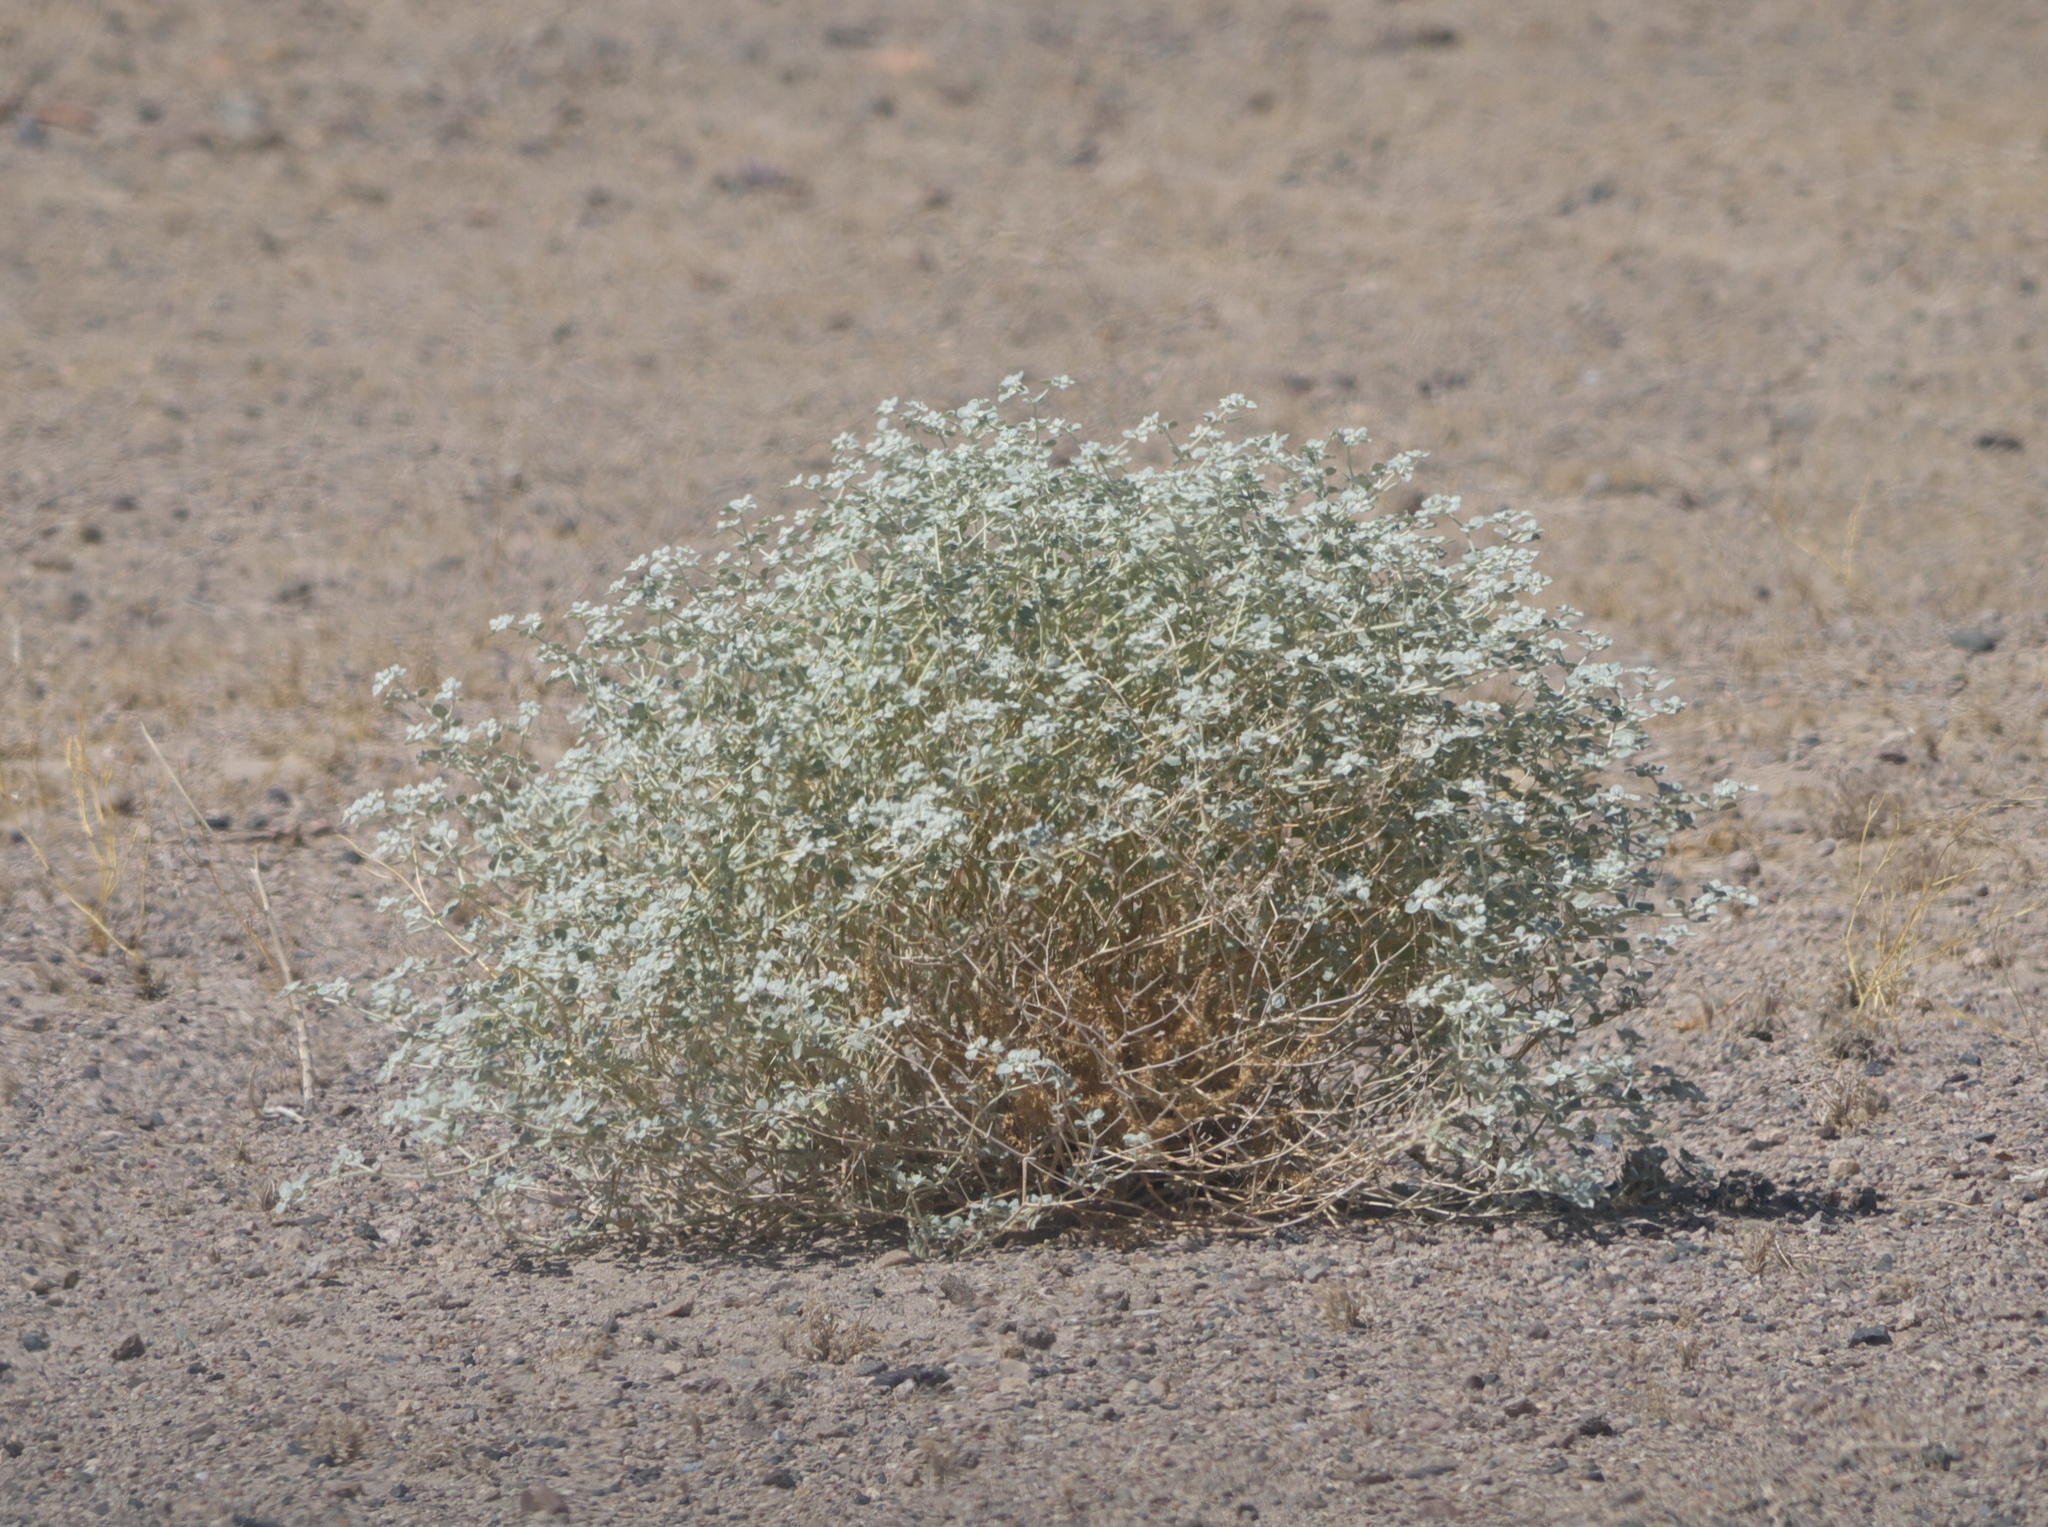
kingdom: Plantae
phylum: Tracheophyta
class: Magnoliopsida
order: Caryophyllales
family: Amaranthaceae
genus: Tidestromia
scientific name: Tidestromia suffruticosa
